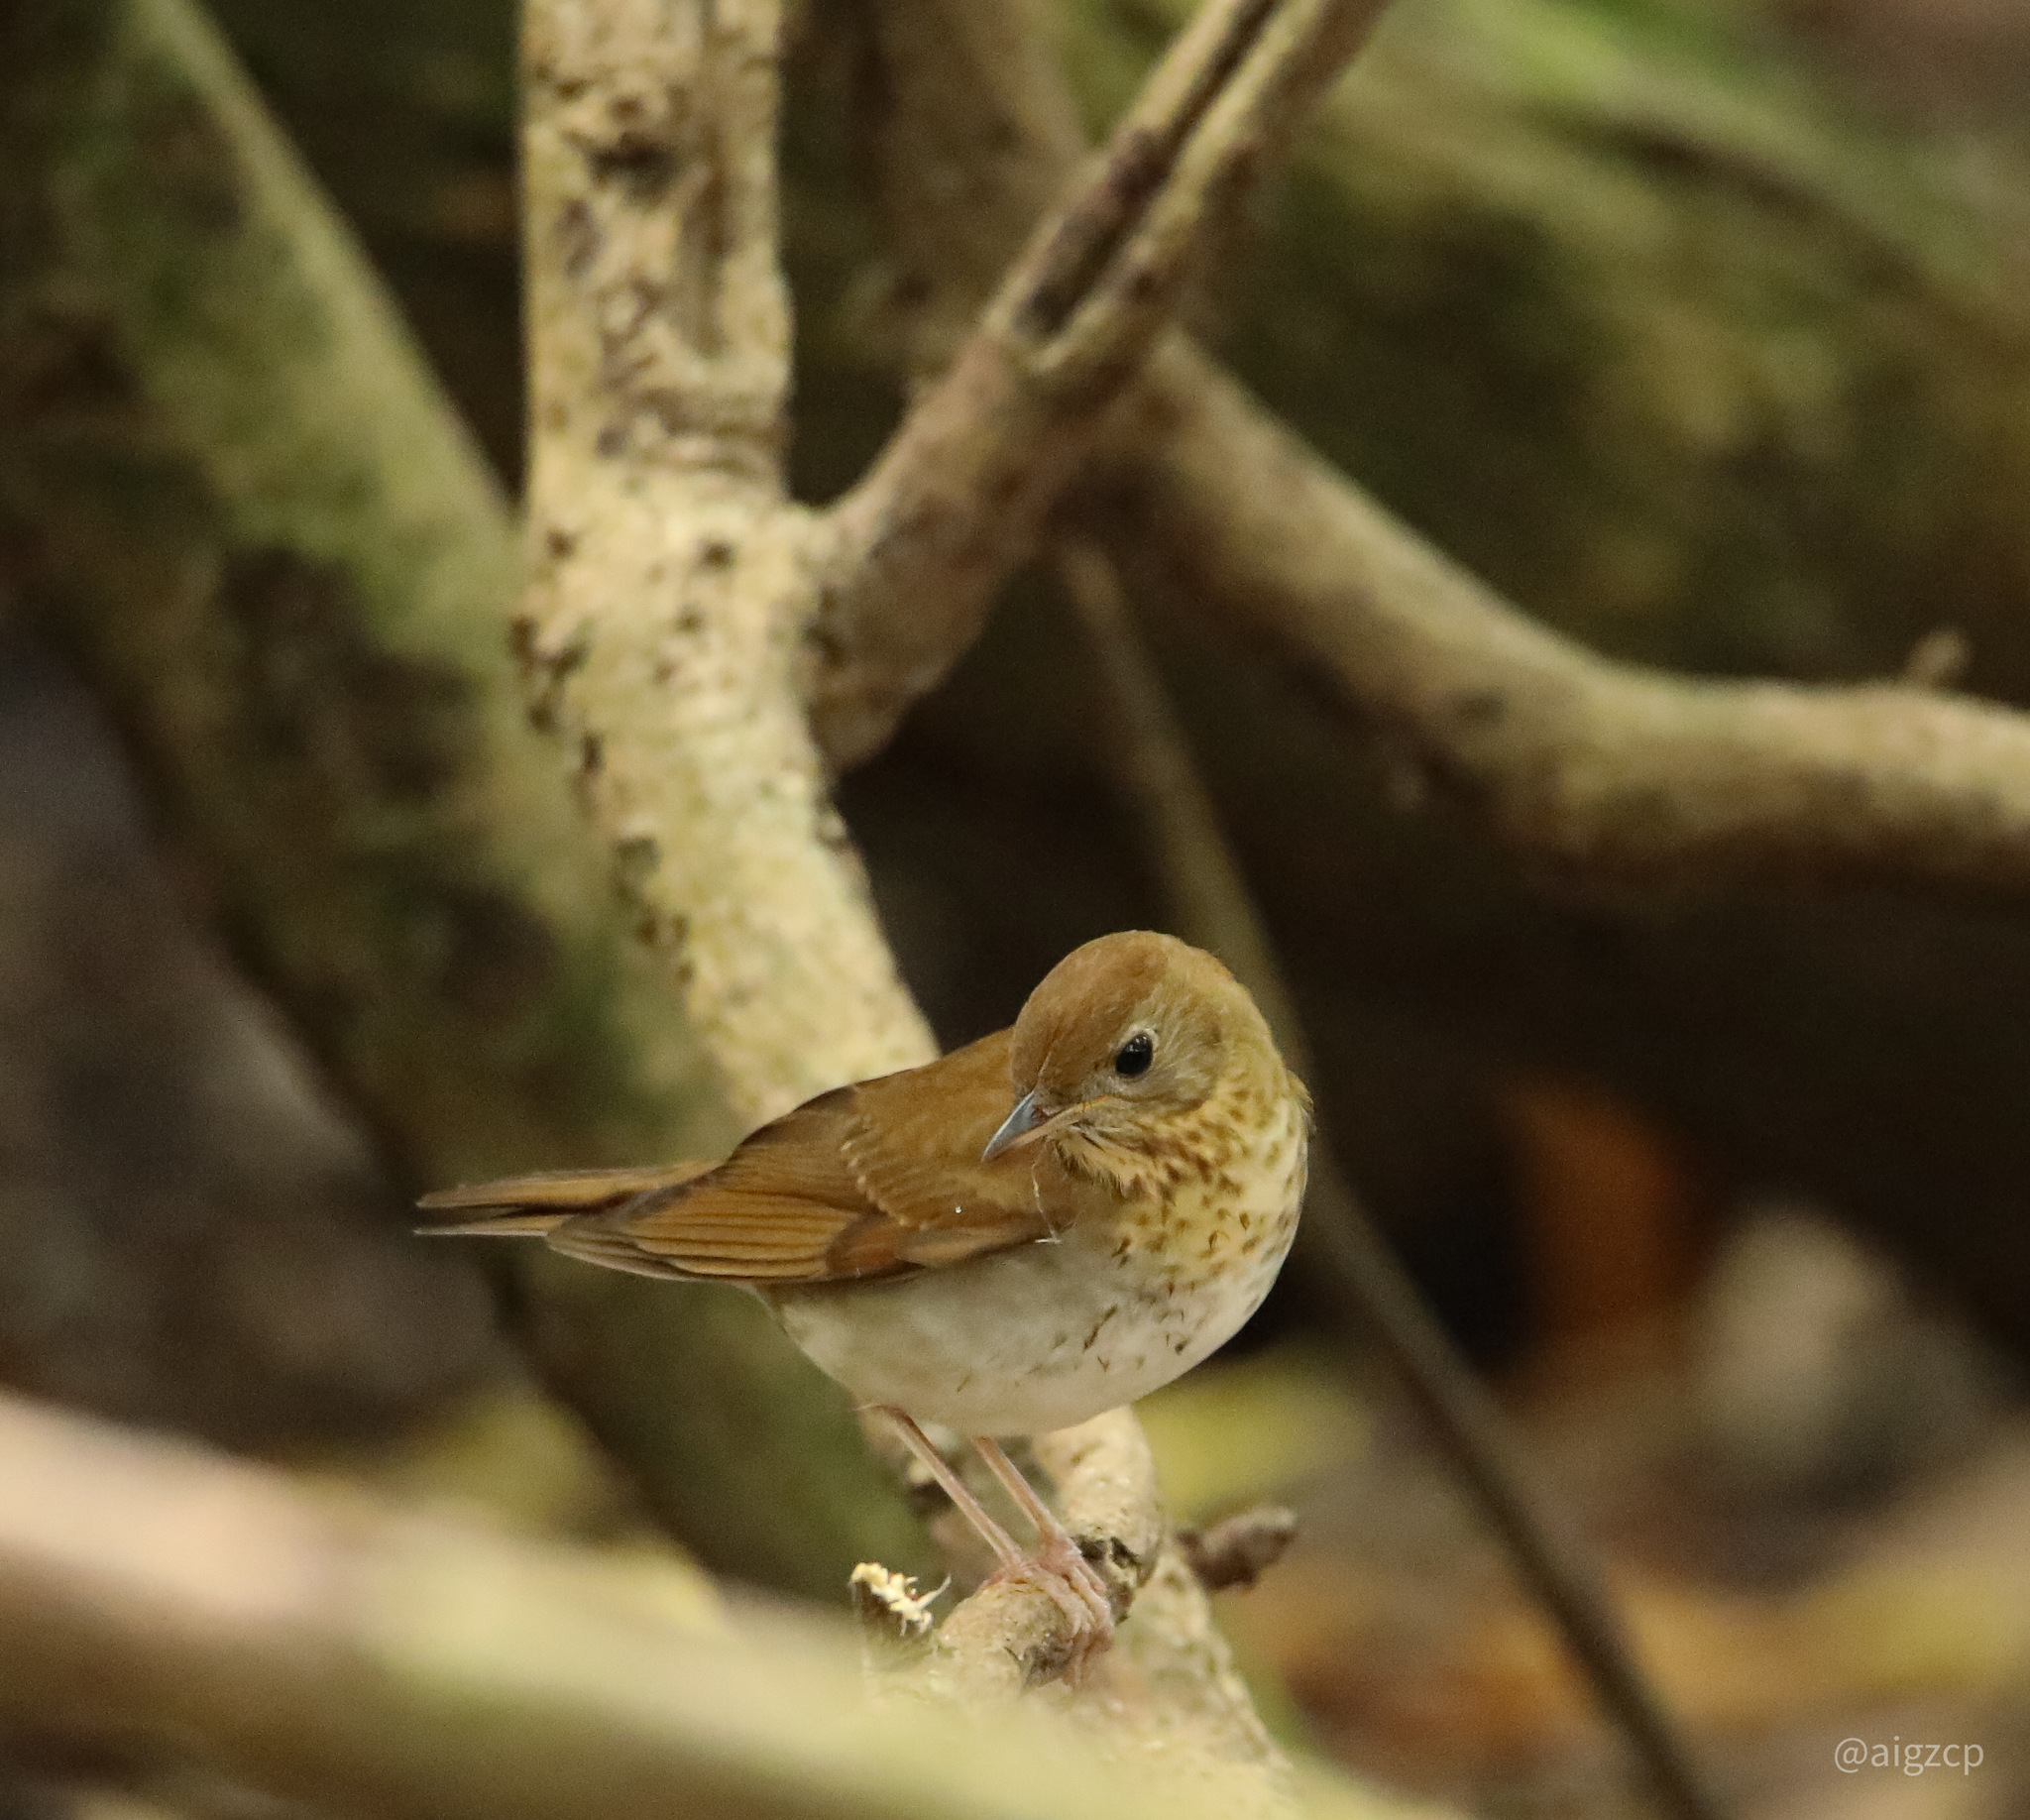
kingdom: Animalia
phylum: Chordata
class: Aves
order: Passeriformes
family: Turdidae
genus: Catharus
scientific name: Catharus fuscescens
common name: Veery
